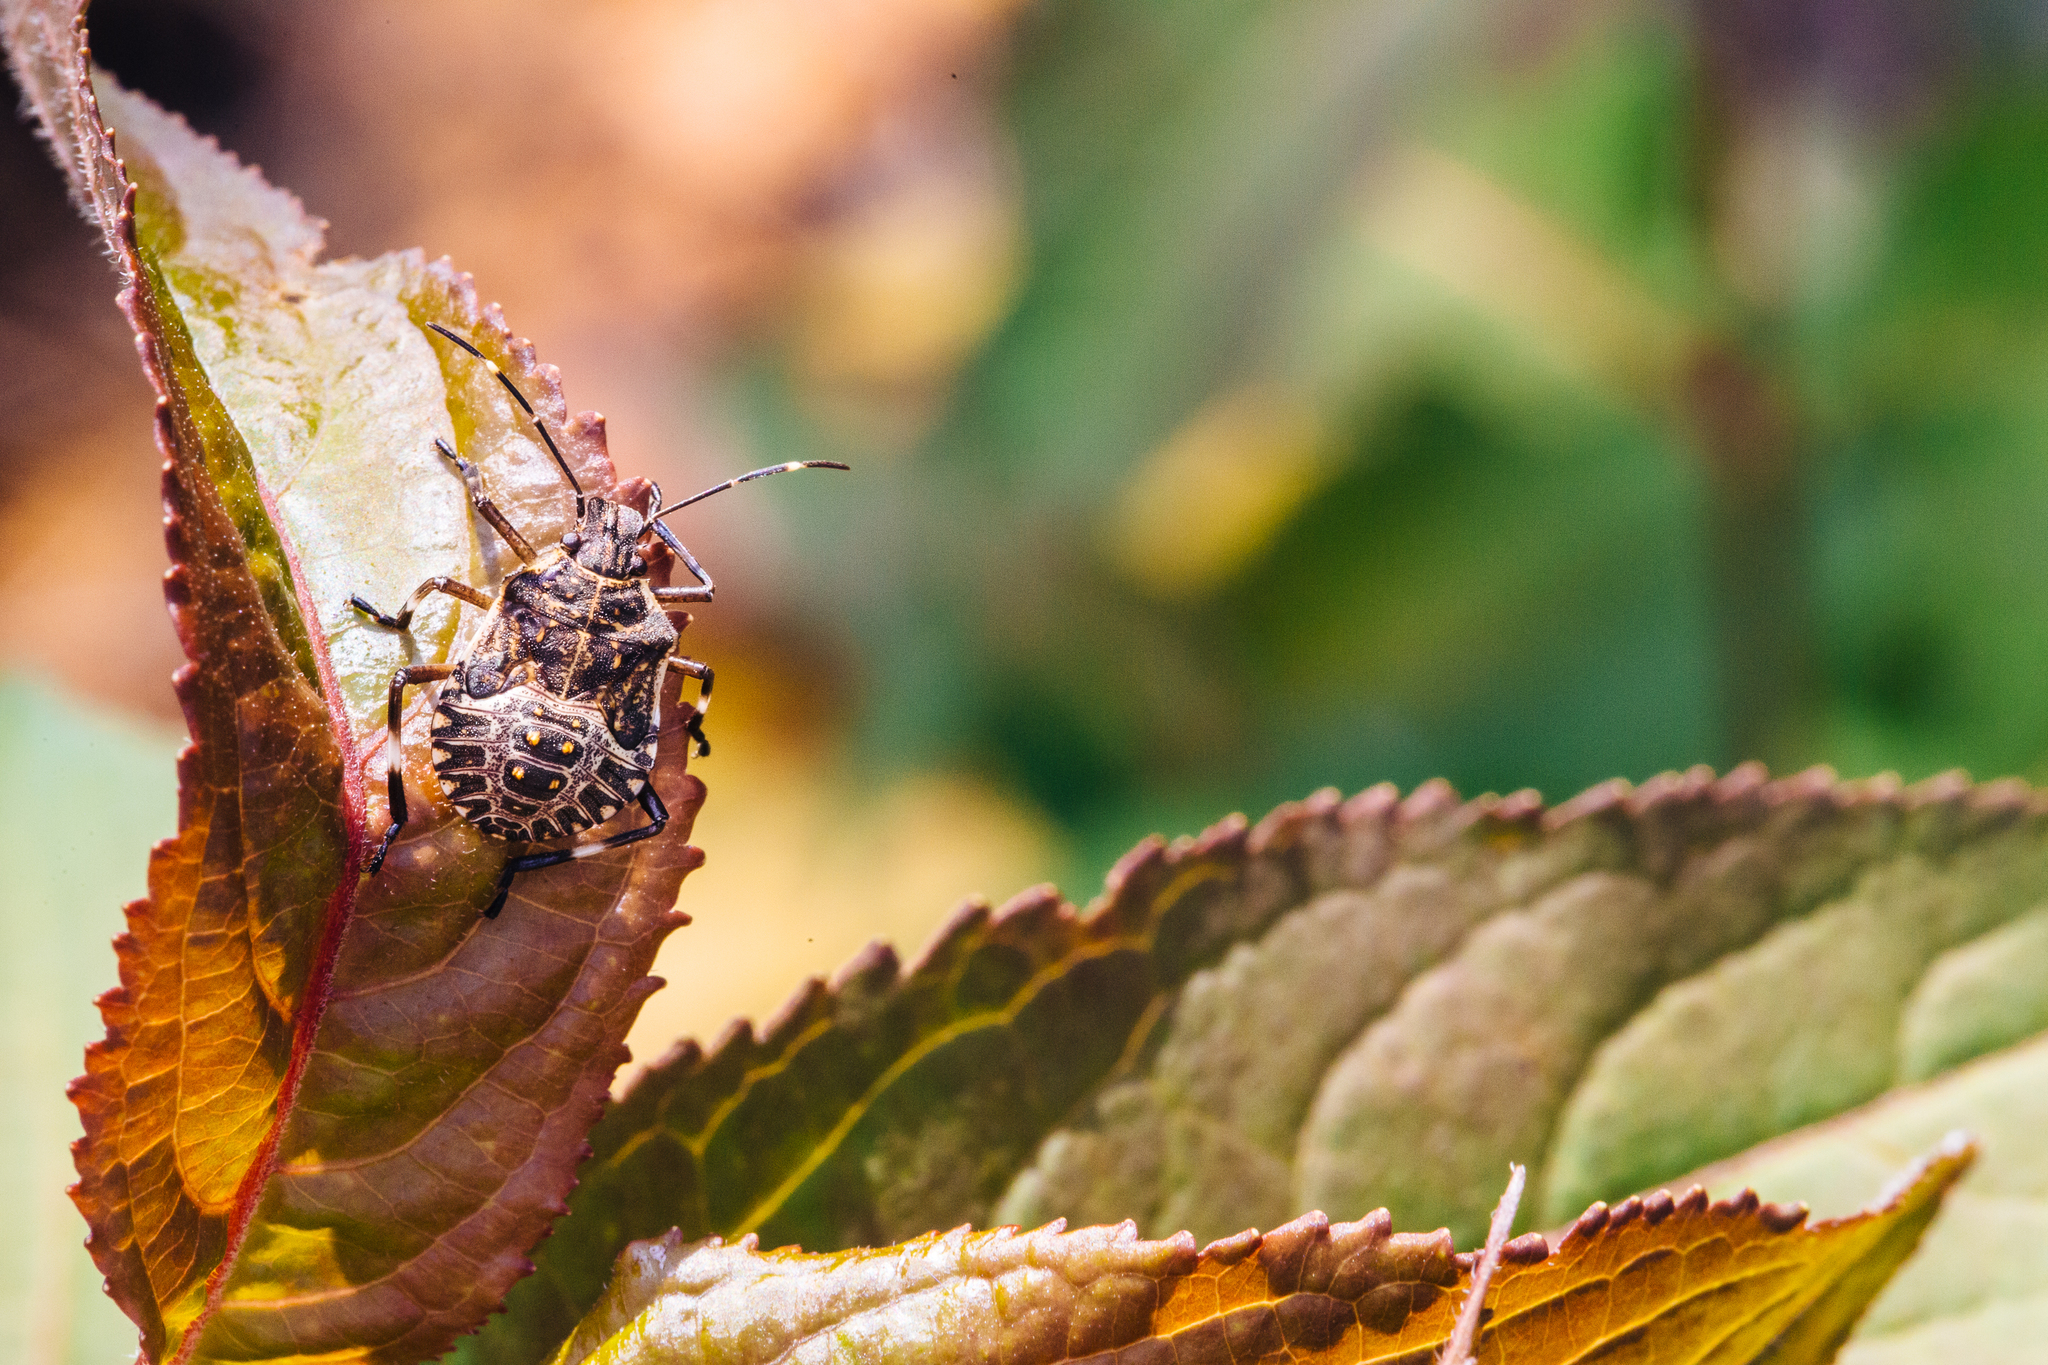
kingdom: Animalia
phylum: Arthropoda
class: Insecta
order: Hemiptera
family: Pentatomidae
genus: Halyomorpha
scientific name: Halyomorpha halys
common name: Brown marmorated stink bug
